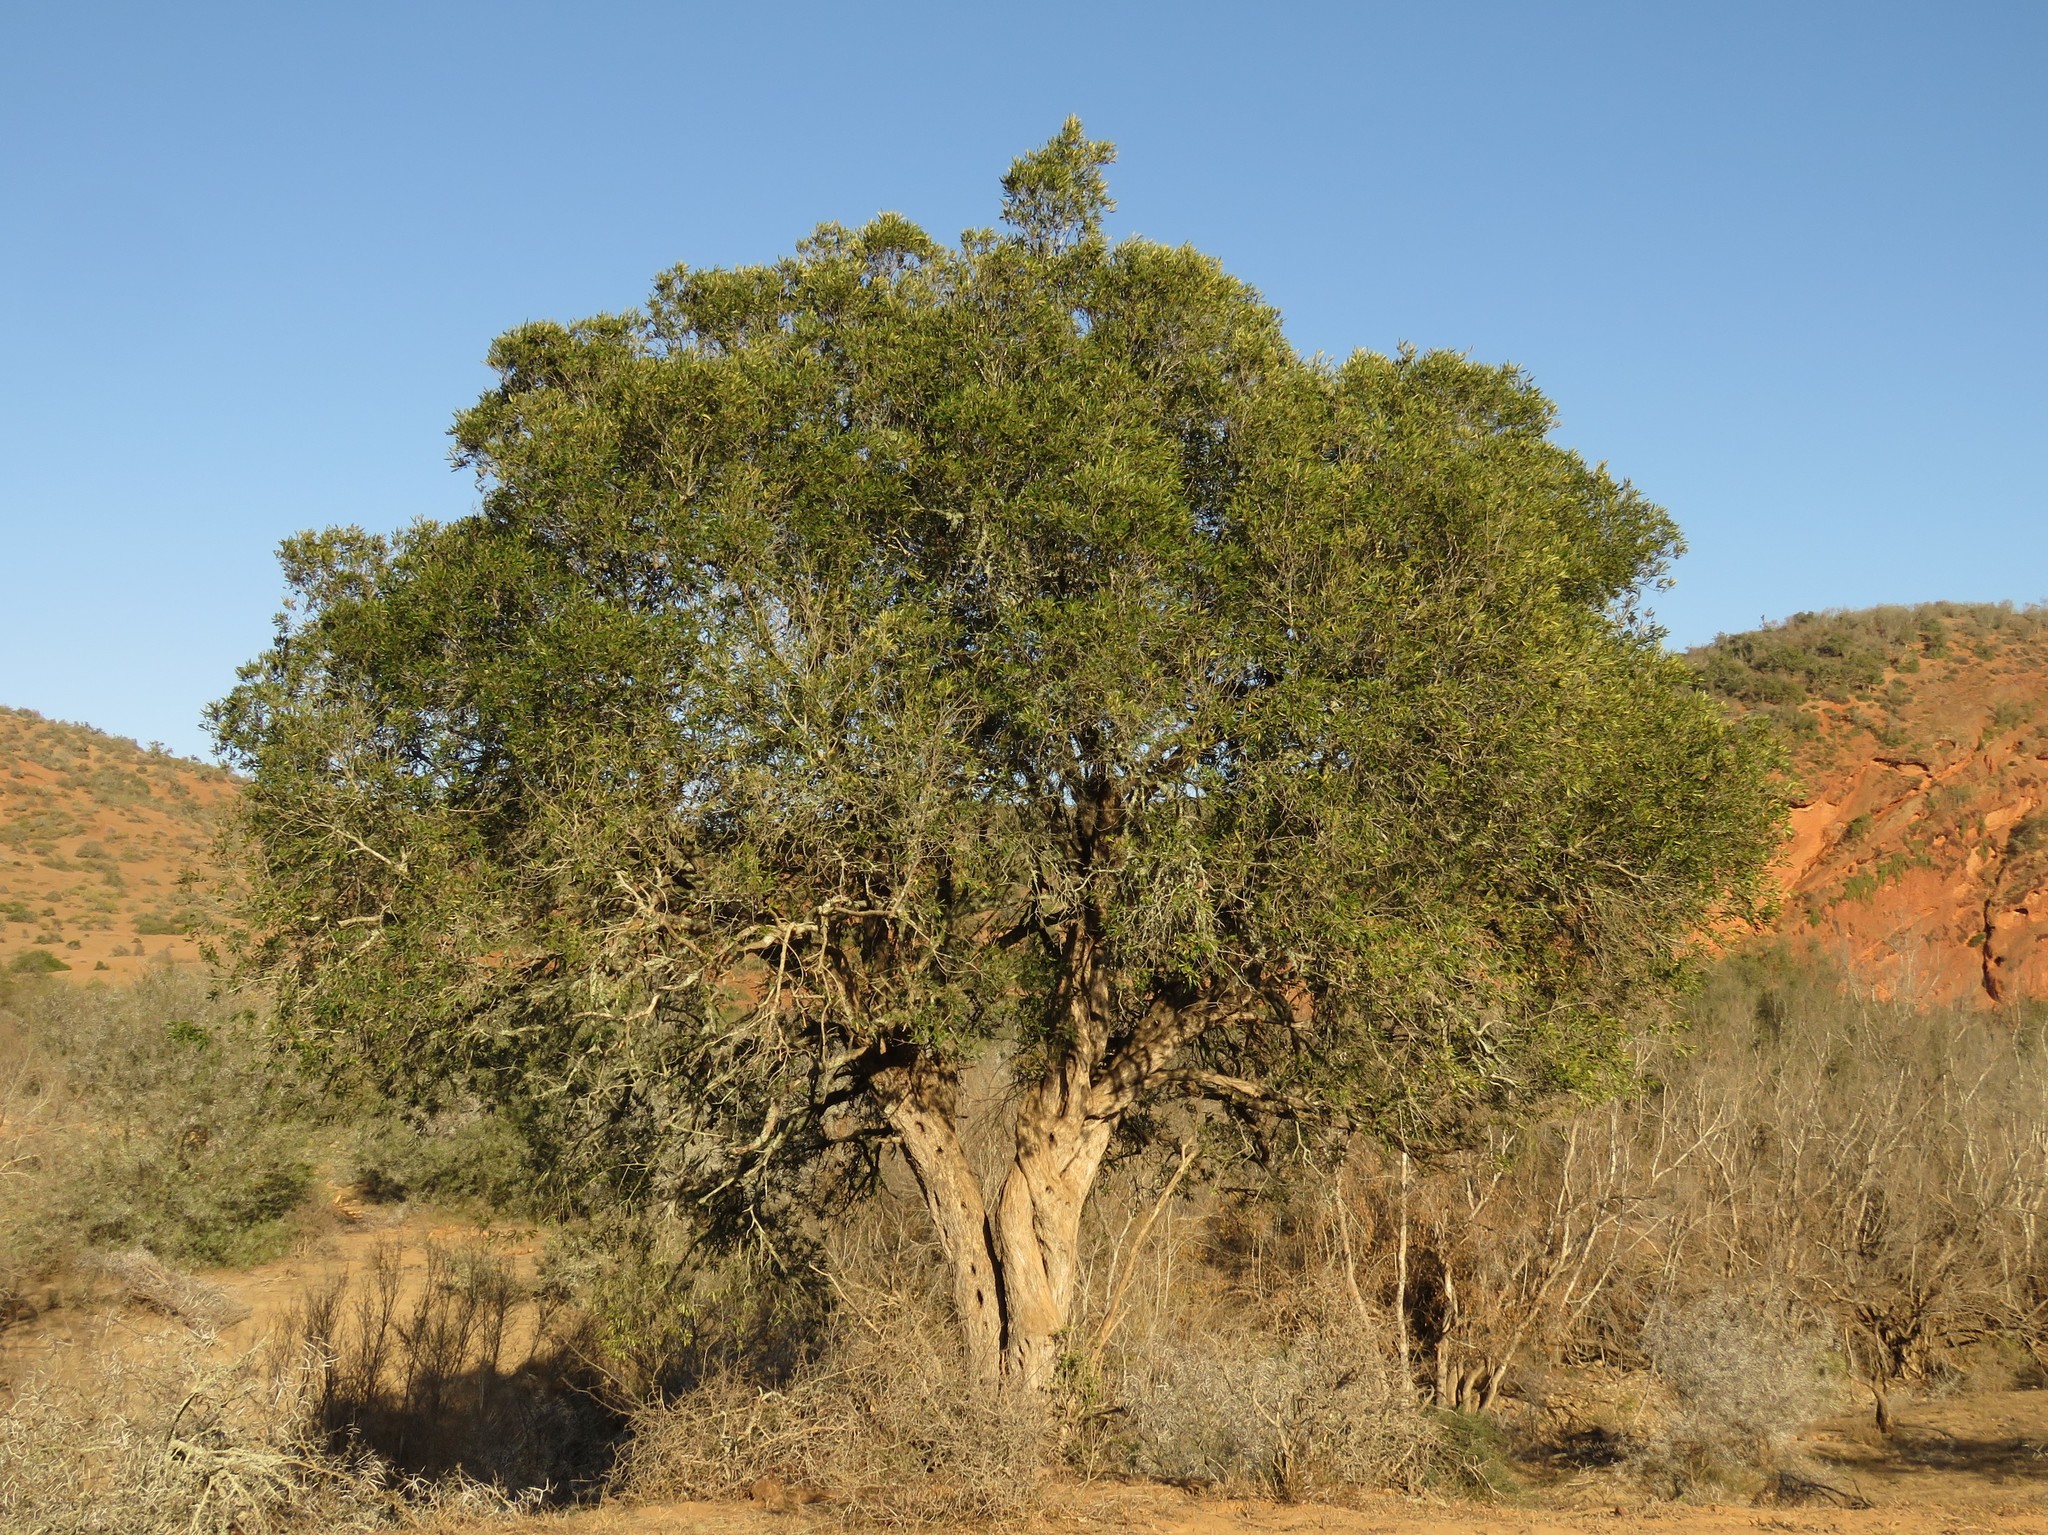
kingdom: Plantae
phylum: Tracheophyta
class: Magnoliopsida
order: Lamiales
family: Oleaceae
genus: Olea
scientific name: Olea europaea
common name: Olive
